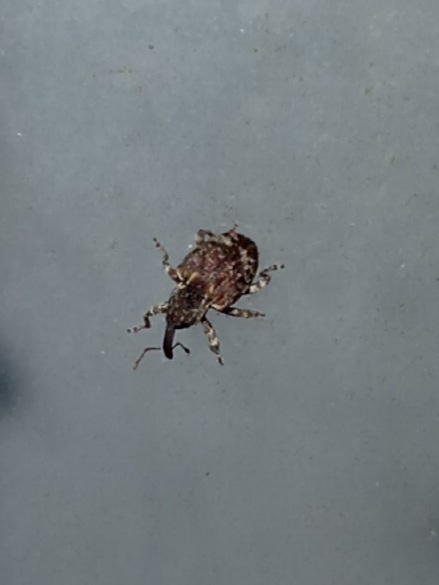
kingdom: Animalia
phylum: Arthropoda
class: Insecta
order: Coleoptera
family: Curculionidae
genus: Conotrachelus
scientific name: Conotrachelus carolinensis
